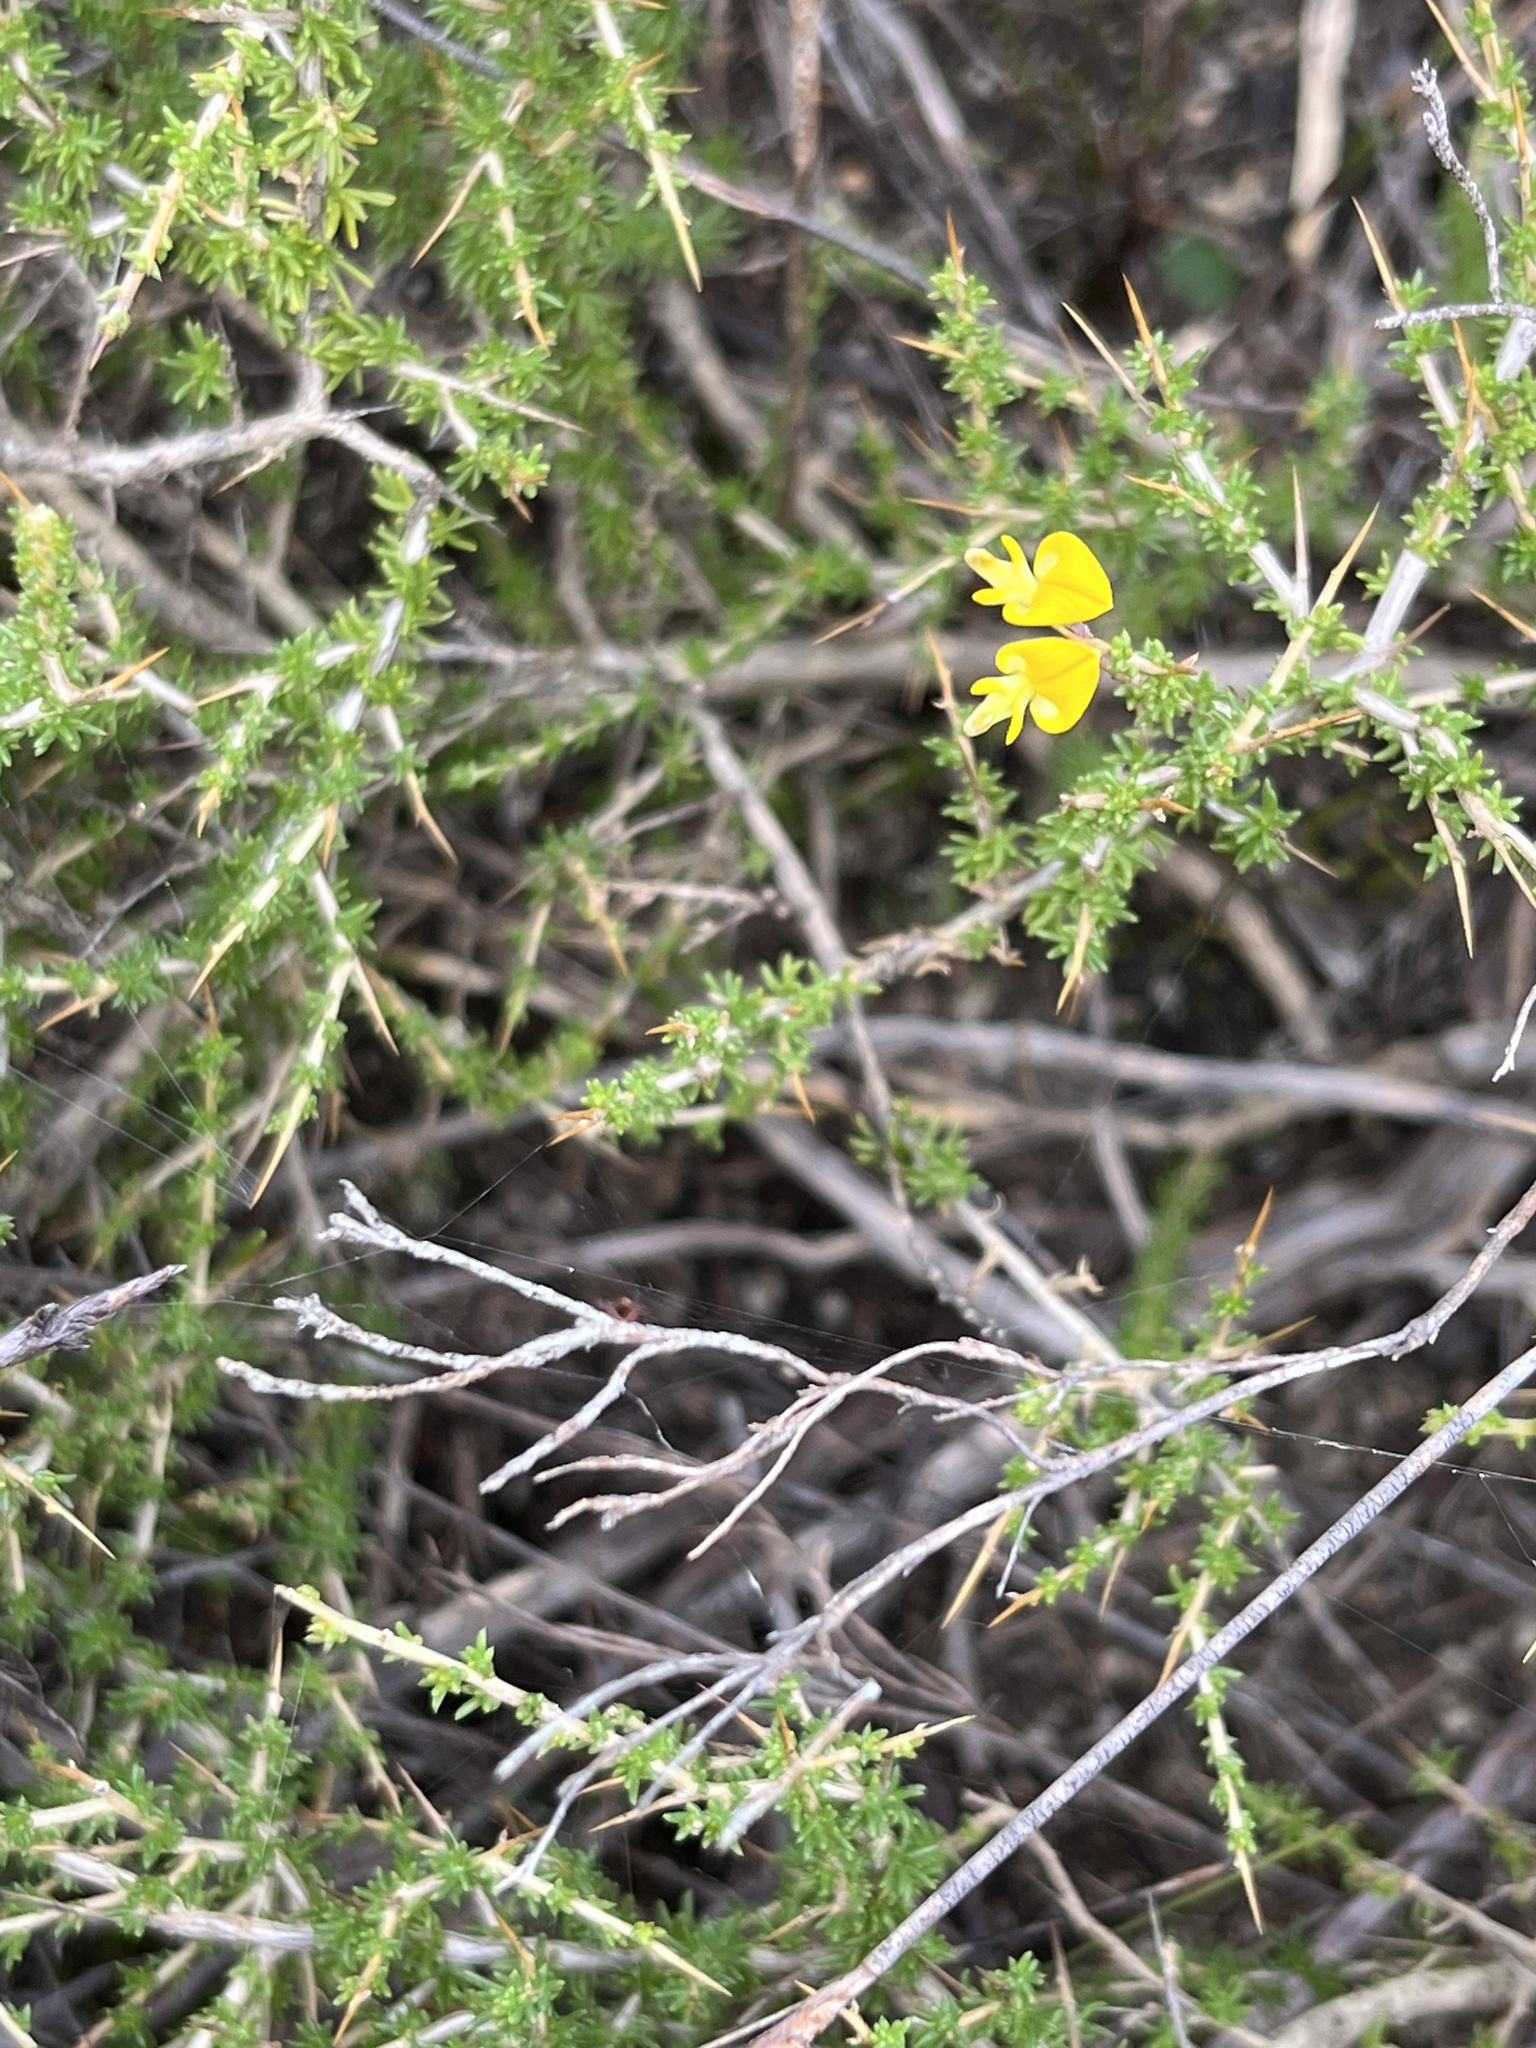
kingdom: Plantae
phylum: Tracheophyta
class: Magnoliopsida
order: Fabales
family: Fabaceae
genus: Aspalathus
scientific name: Aspalathus acuminata
